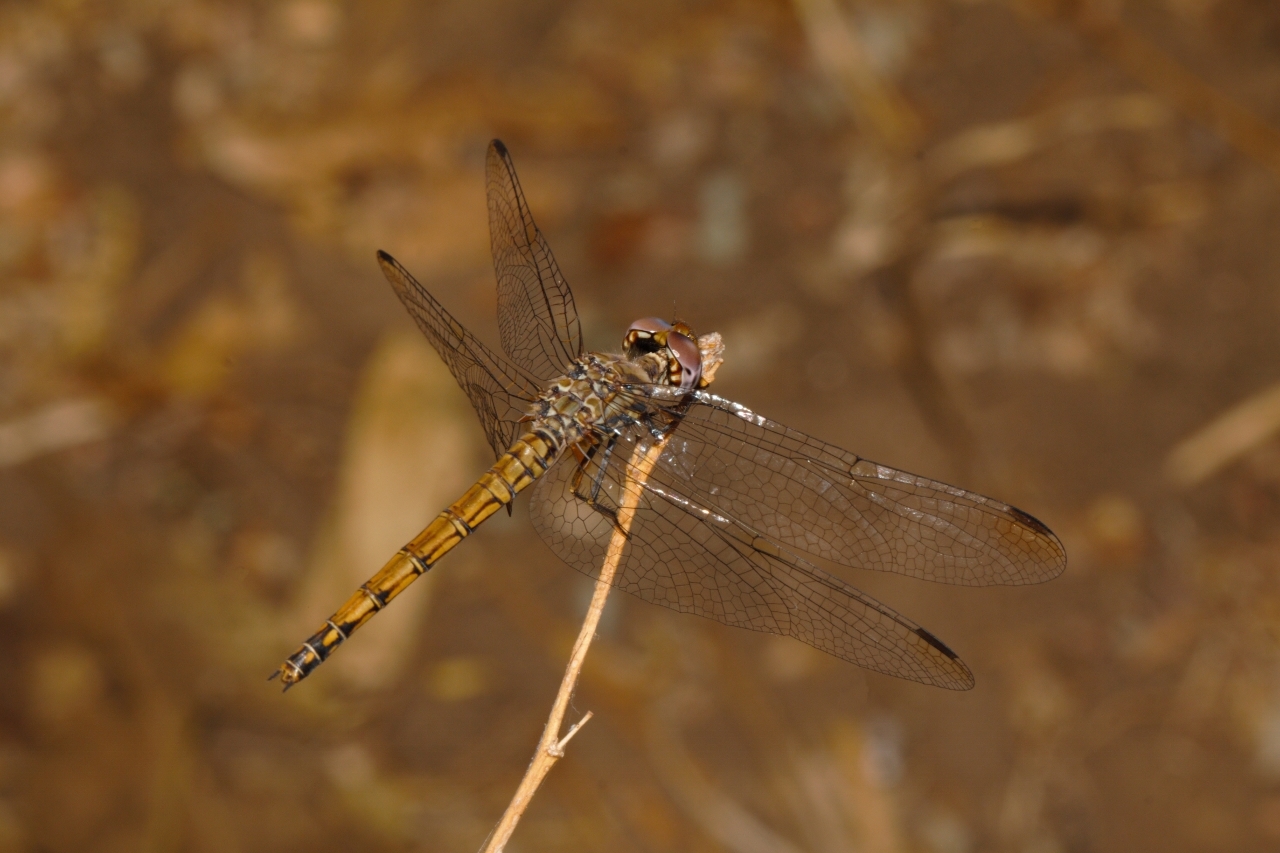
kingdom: Animalia
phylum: Arthropoda
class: Insecta
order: Odonata
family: Libellulidae
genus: Trithemis
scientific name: Trithemis werneri
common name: Elegant dropwing
